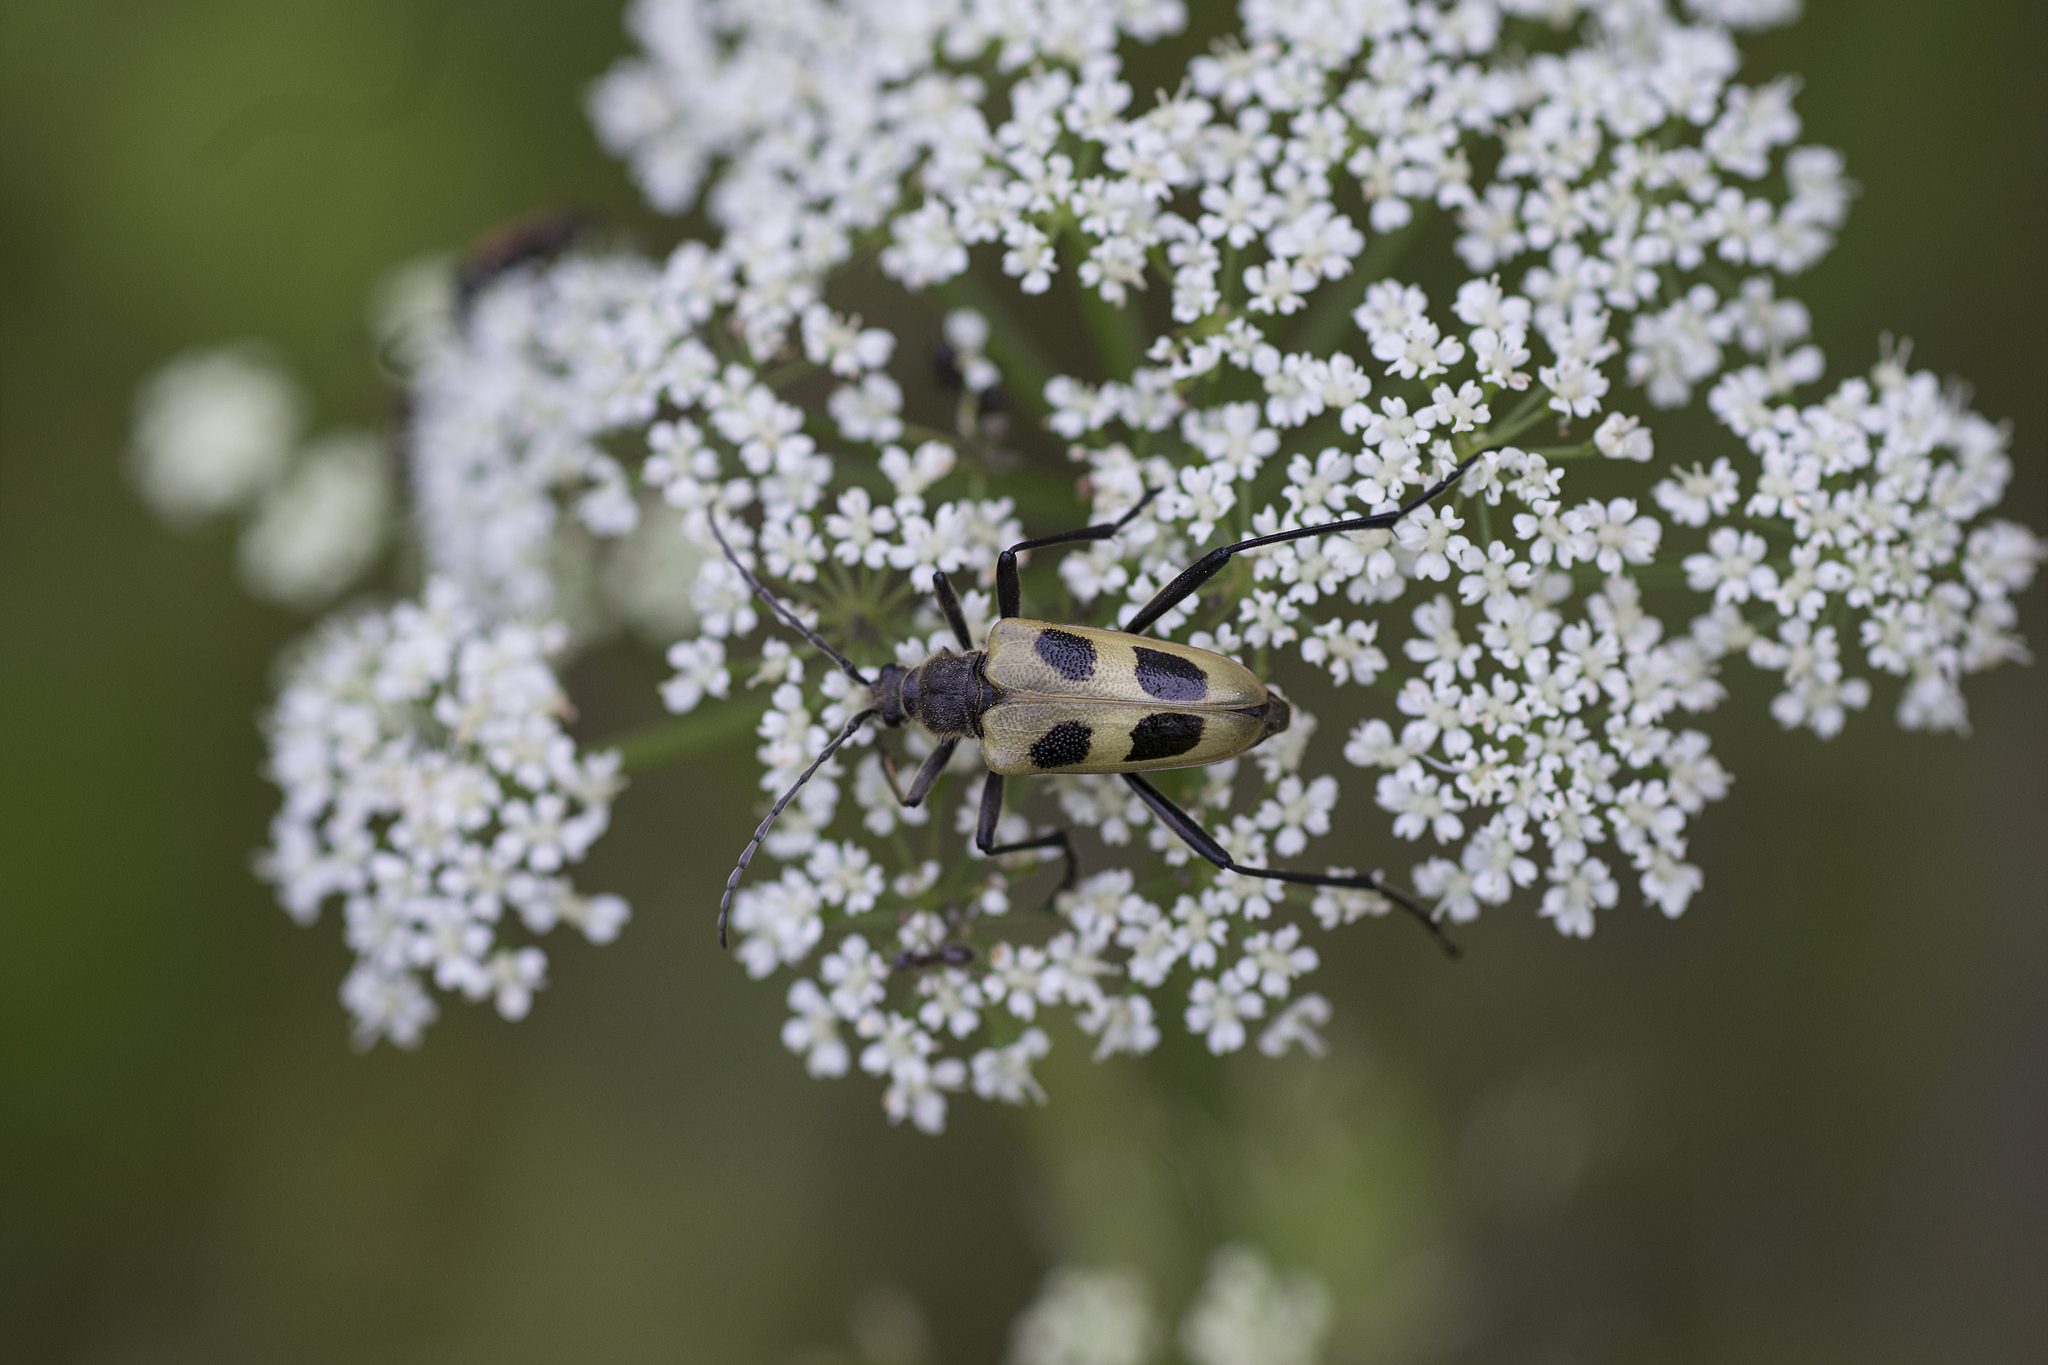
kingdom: Animalia
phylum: Arthropoda
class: Insecta
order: Coleoptera
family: Cerambycidae
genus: Pachyta
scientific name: Pachyta quadrimaculata
